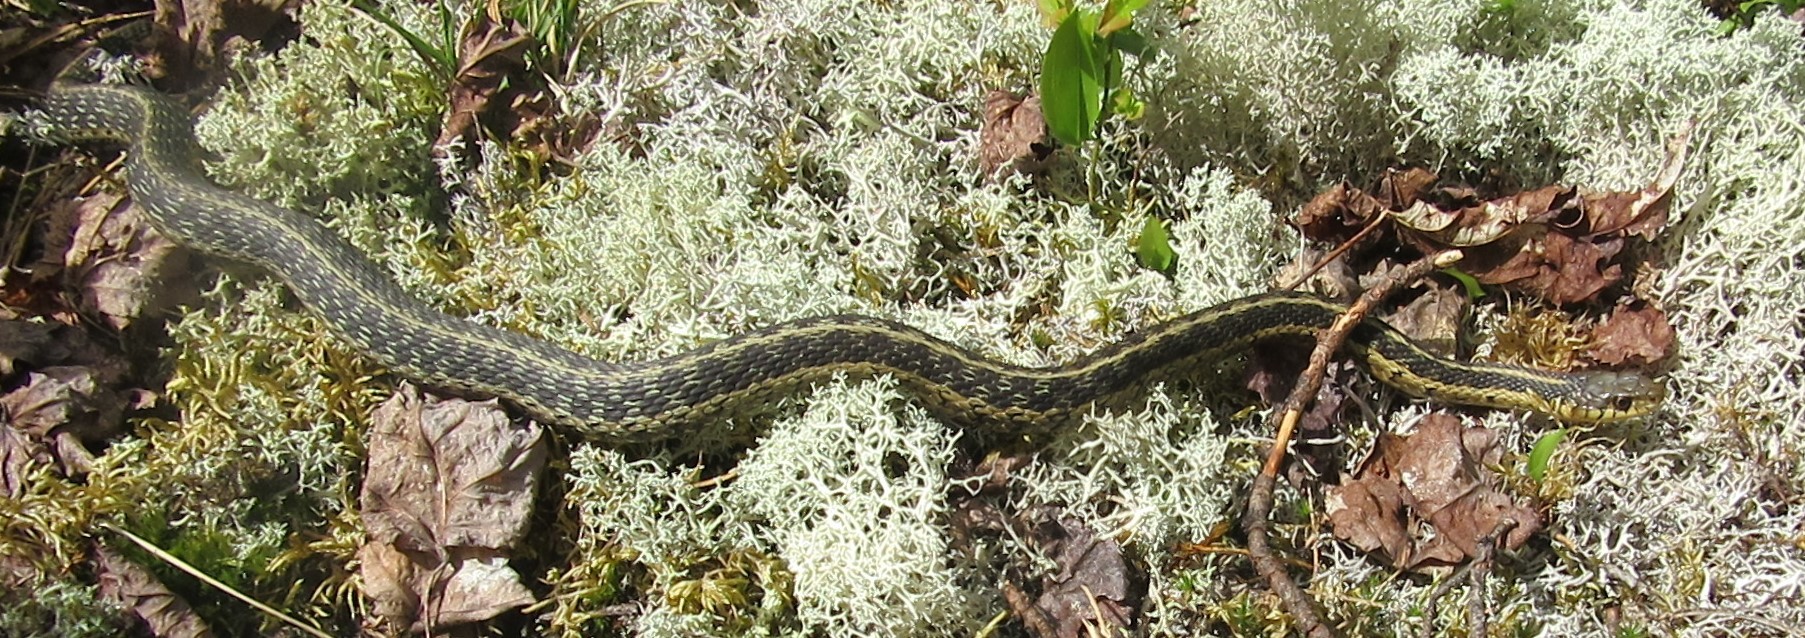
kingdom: Animalia
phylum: Chordata
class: Squamata
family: Colubridae
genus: Thamnophis
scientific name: Thamnophis sirtalis
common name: Common garter snake
